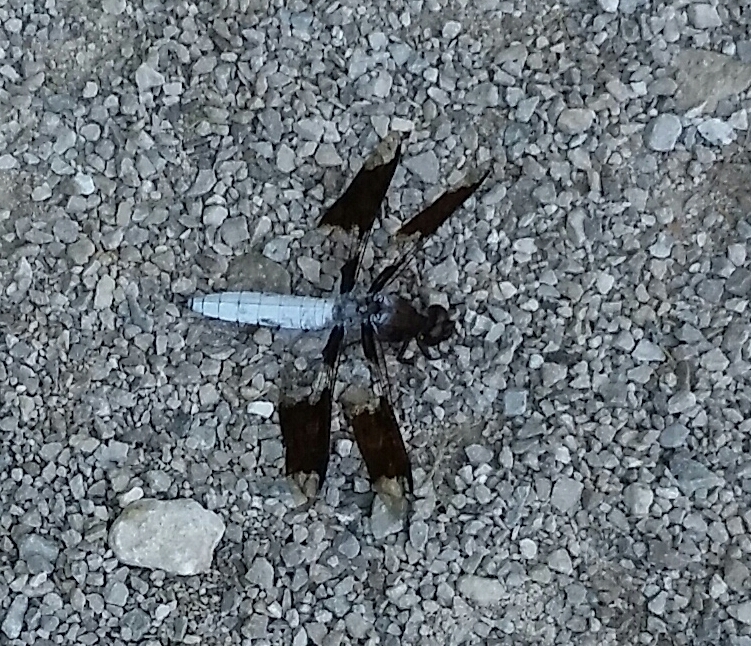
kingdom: Animalia
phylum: Arthropoda
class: Insecta
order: Odonata
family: Libellulidae
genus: Plathemis
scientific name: Plathemis lydia
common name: Common whitetail
